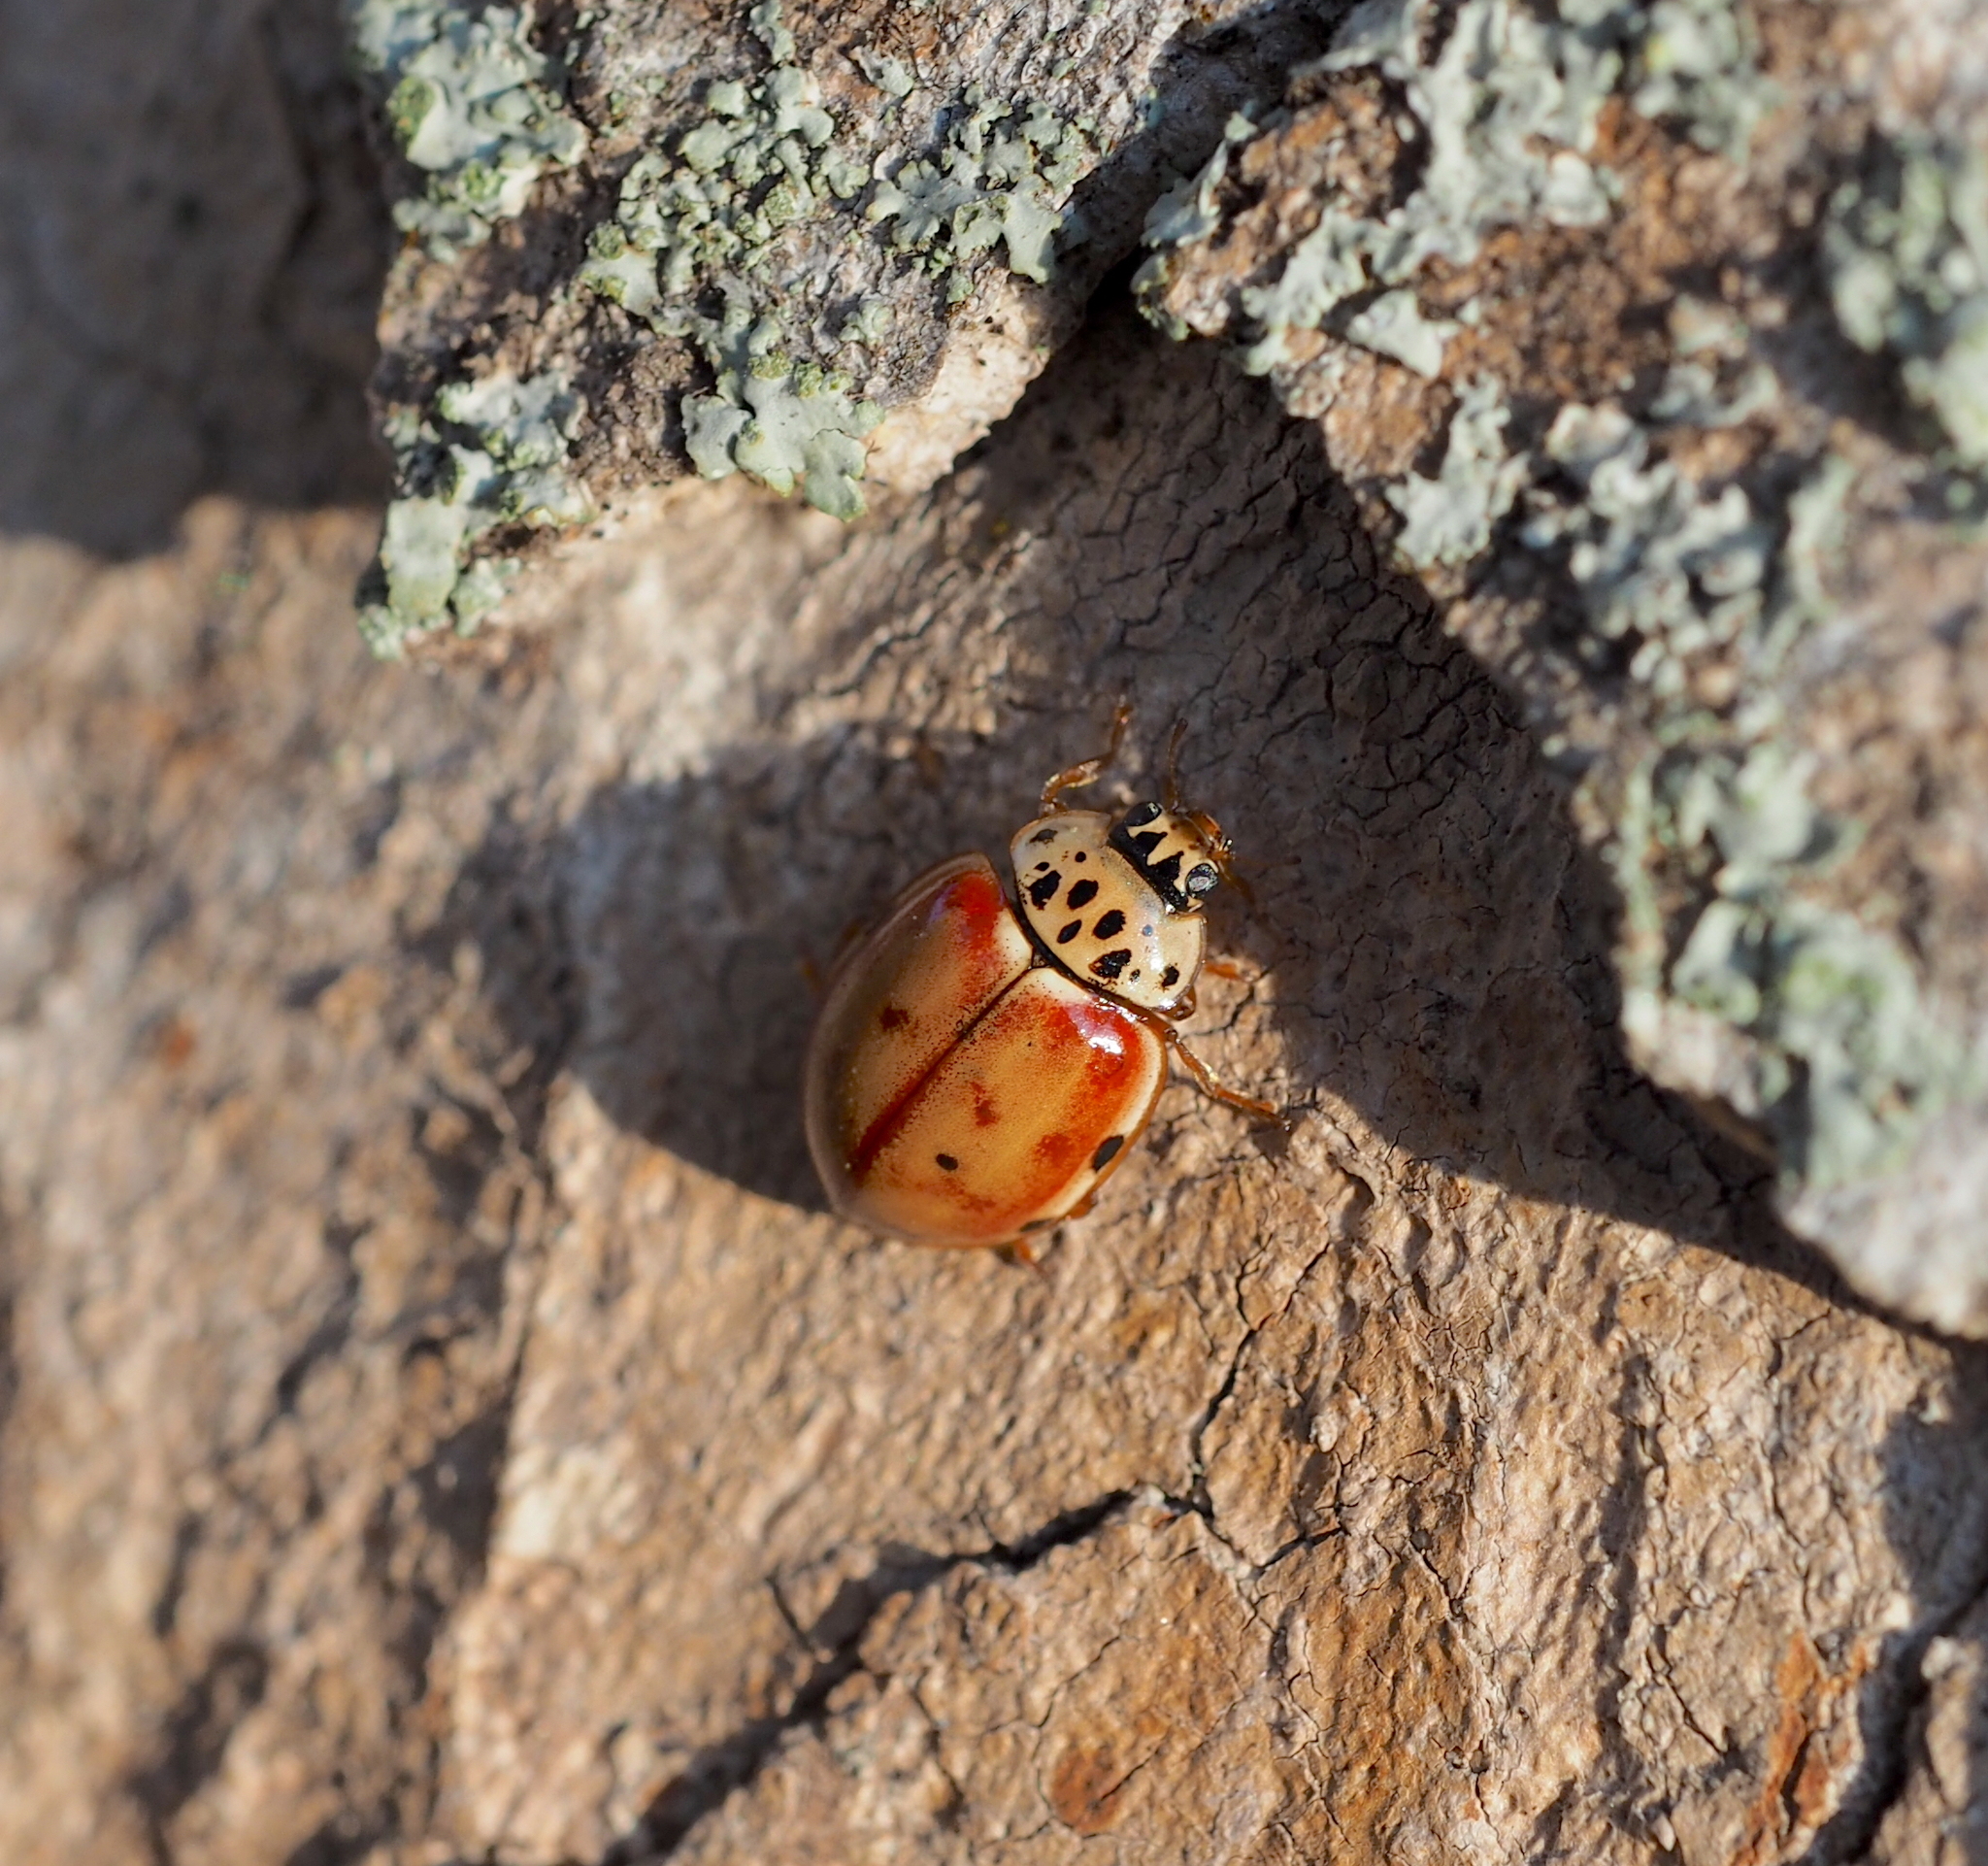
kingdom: Animalia
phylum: Arthropoda
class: Insecta
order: Coleoptera
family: Coccinellidae
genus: Harmonia
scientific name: Harmonia quadripunctata
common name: Cream-streaked ladybird
